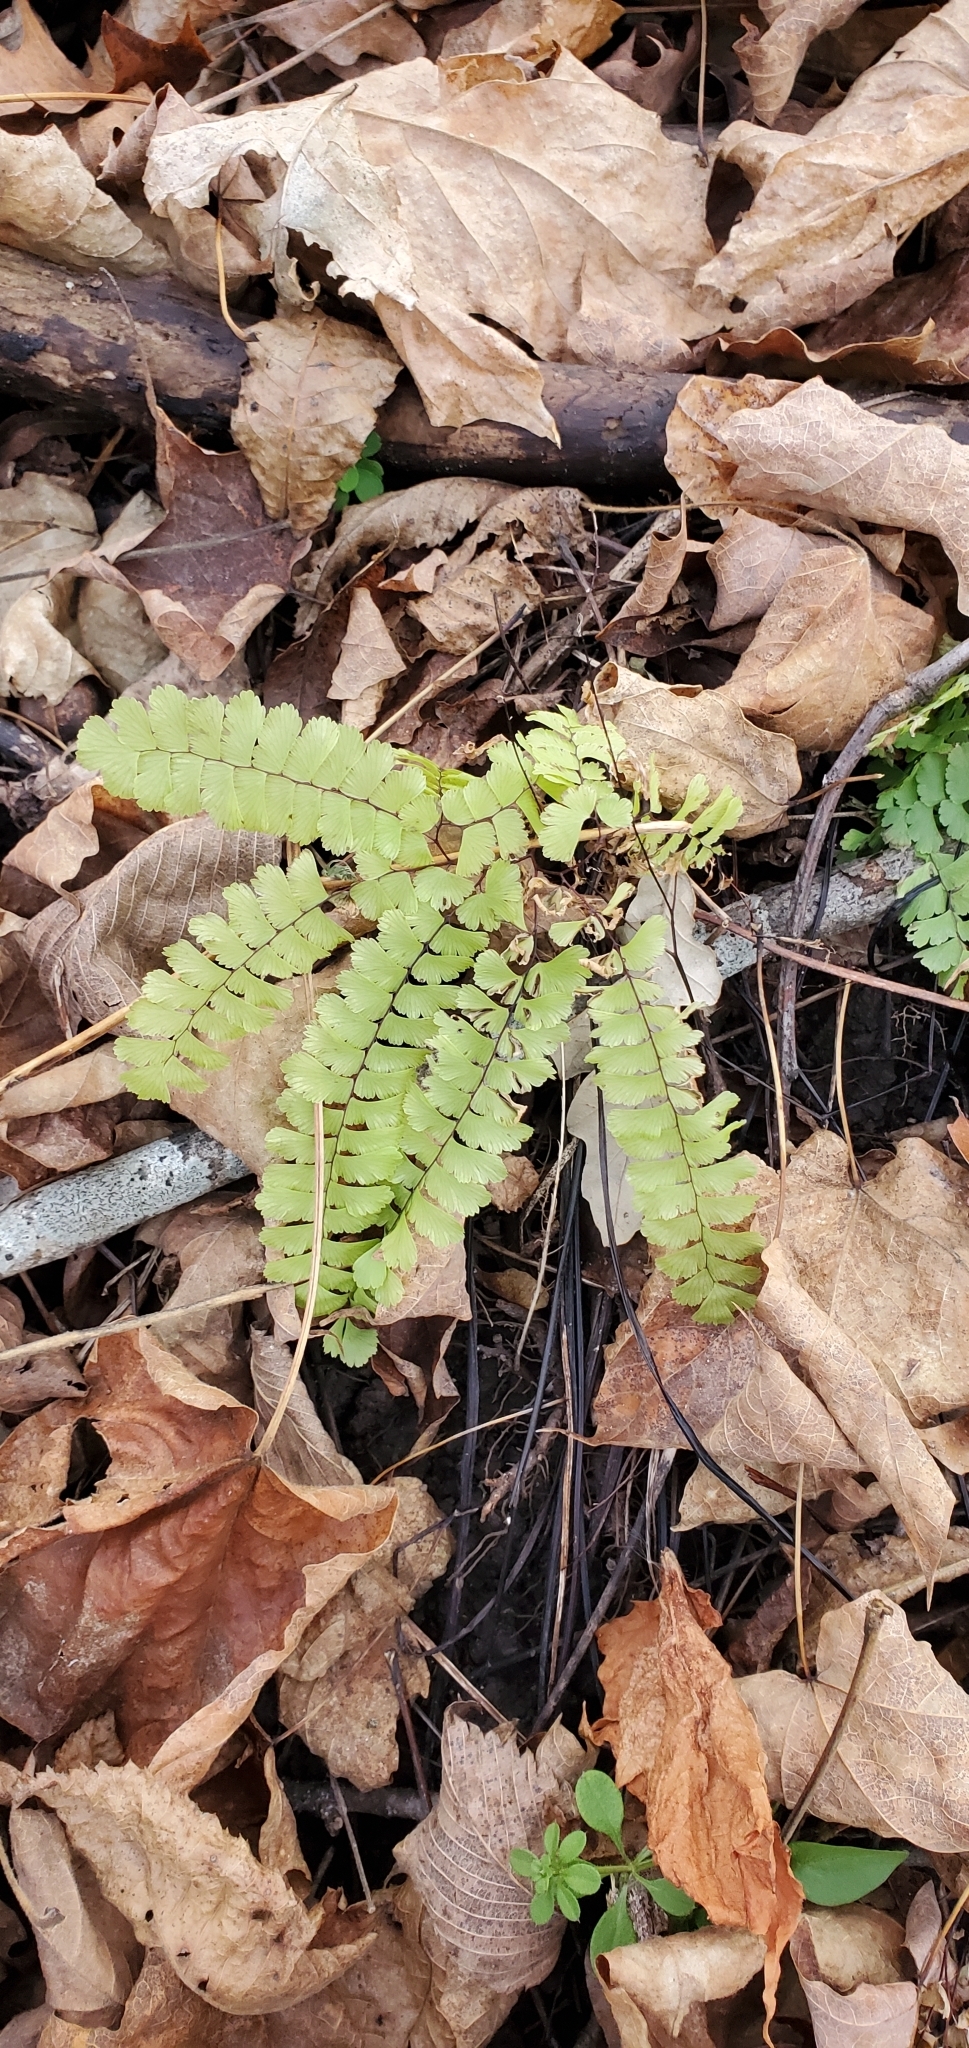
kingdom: Plantae
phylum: Tracheophyta
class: Polypodiopsida
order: Polypodiales
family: Pteridaceae
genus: Adiantum
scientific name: Adiantum pedatum
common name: Five-finger fern
